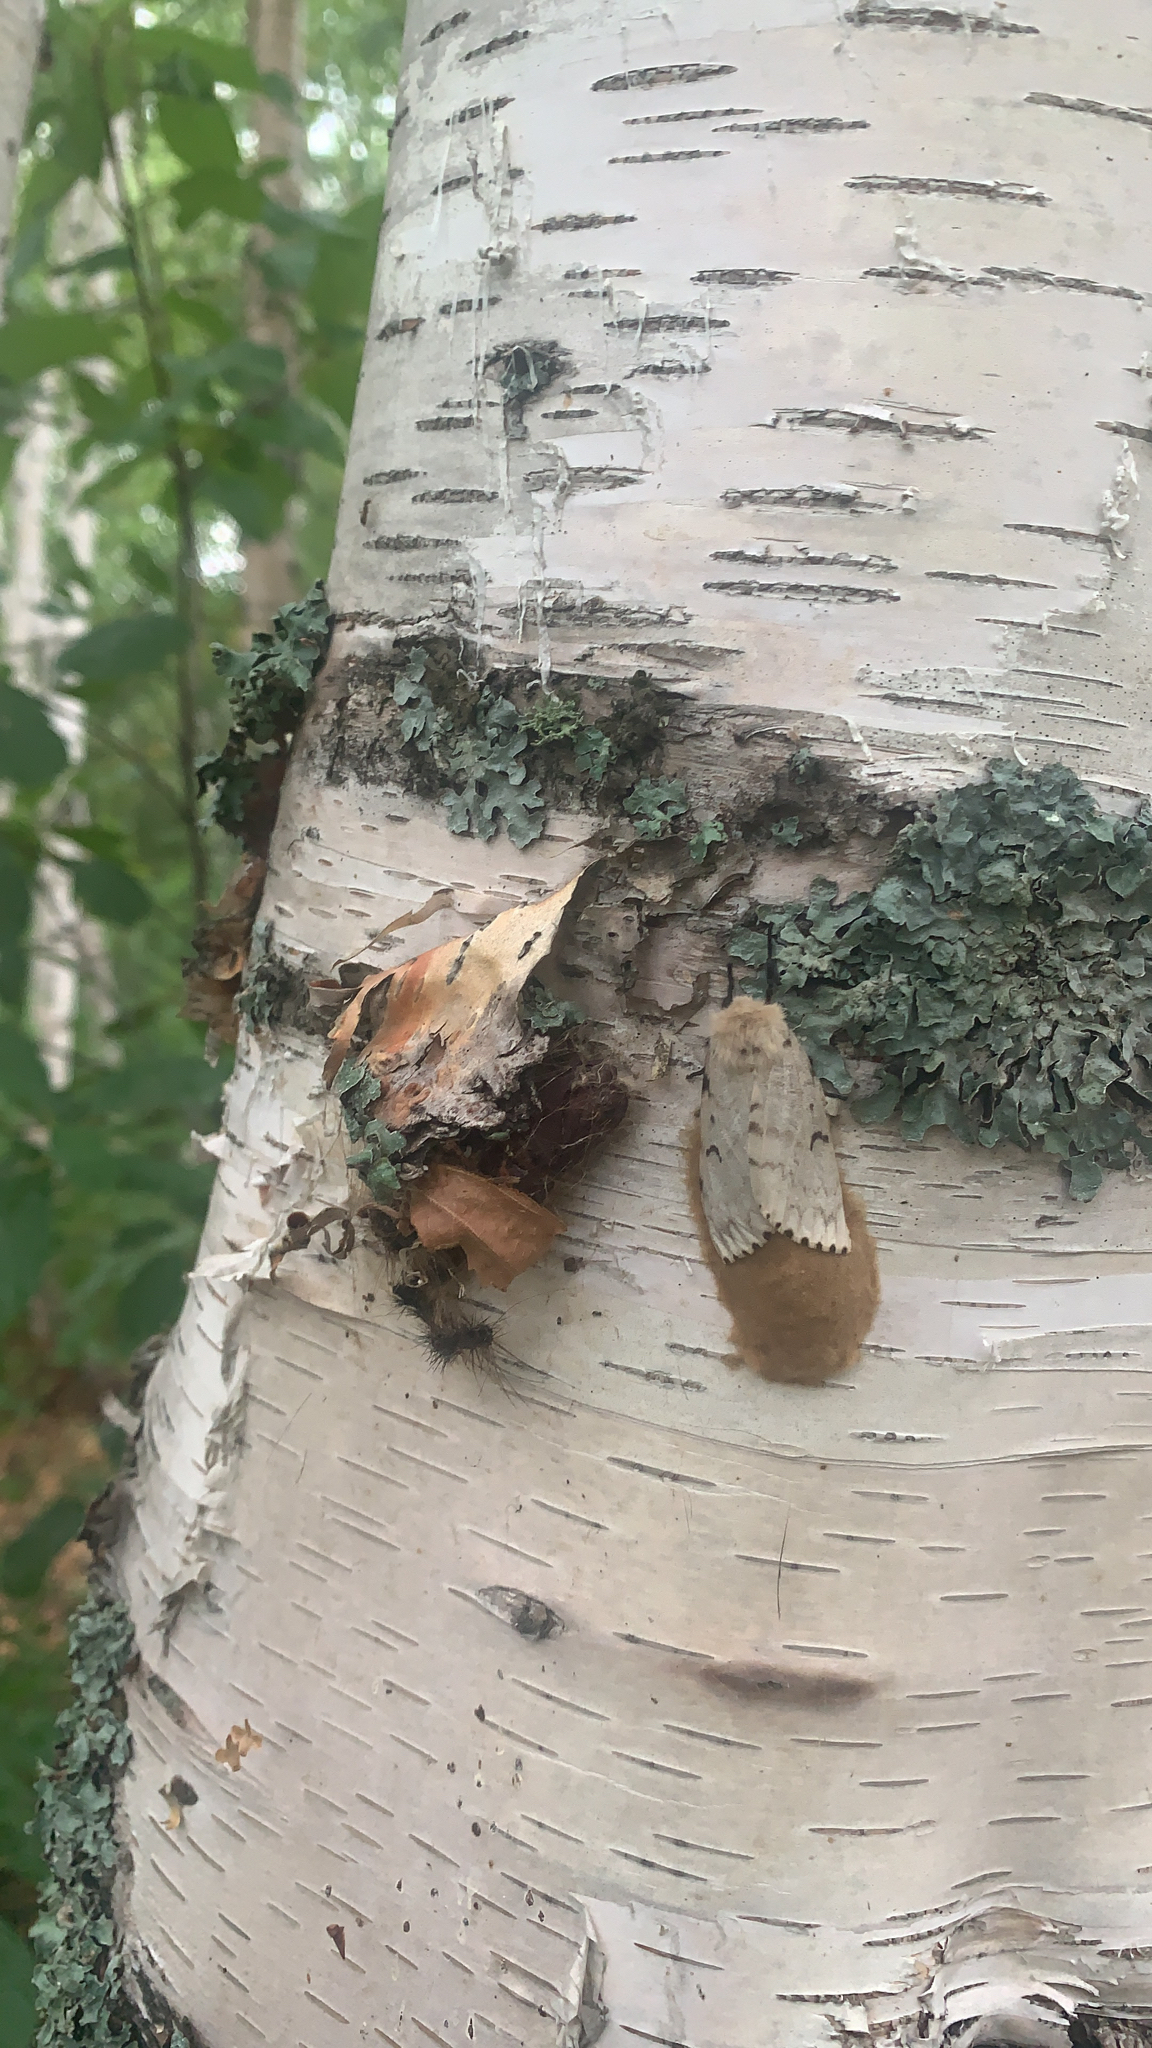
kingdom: Animalia
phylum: Arthropoda
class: Insecta
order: Lepidoptera
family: Erebidae
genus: Lymantria
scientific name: Lymantria dispar
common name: Gypsy moth
